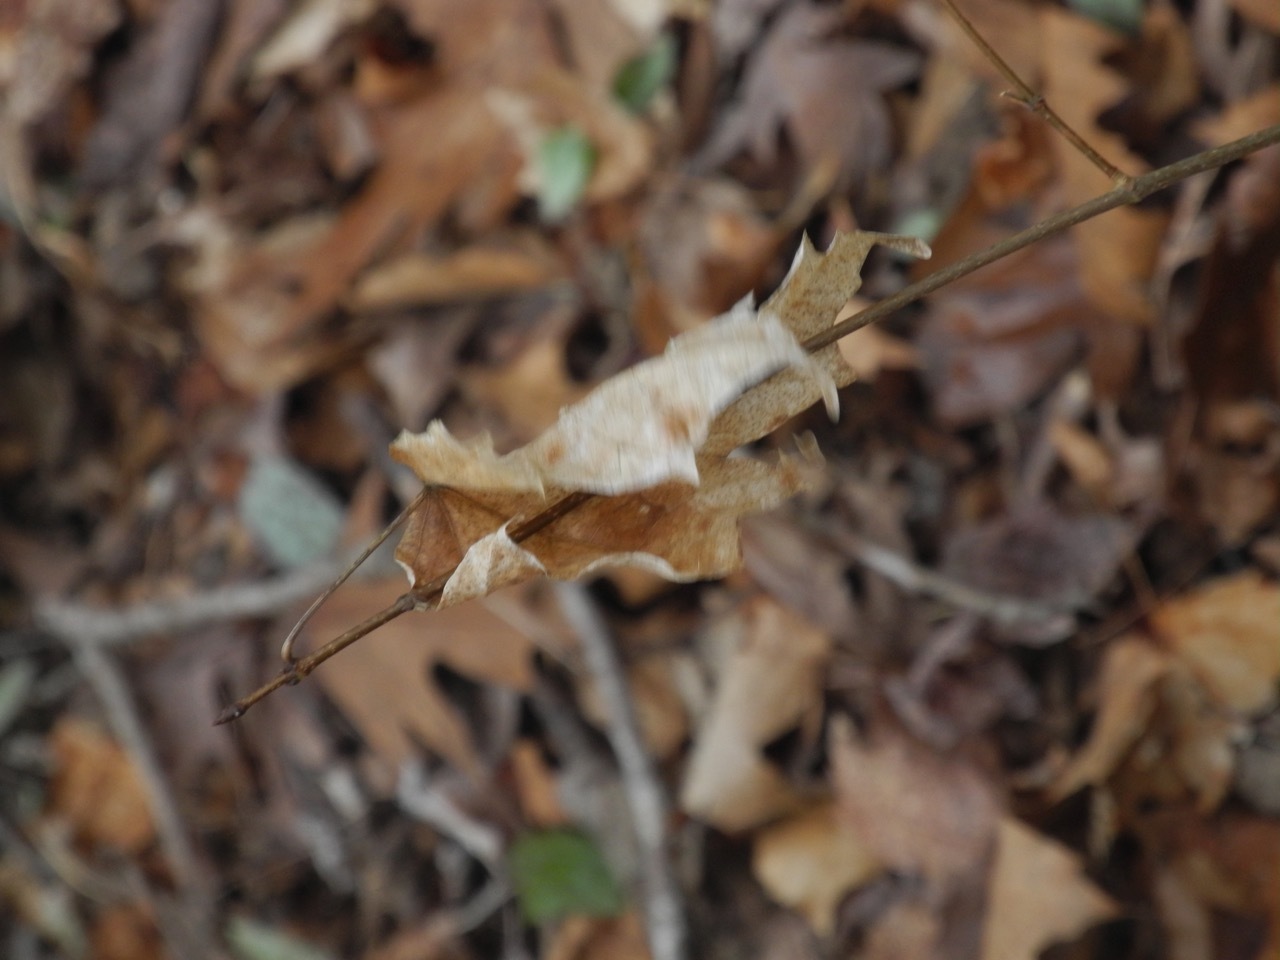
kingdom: Plantae
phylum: Tracheophyta
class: Magnoliopsida
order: Sapindales
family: Sapindaceae
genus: Acer
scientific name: Acer floridanum
